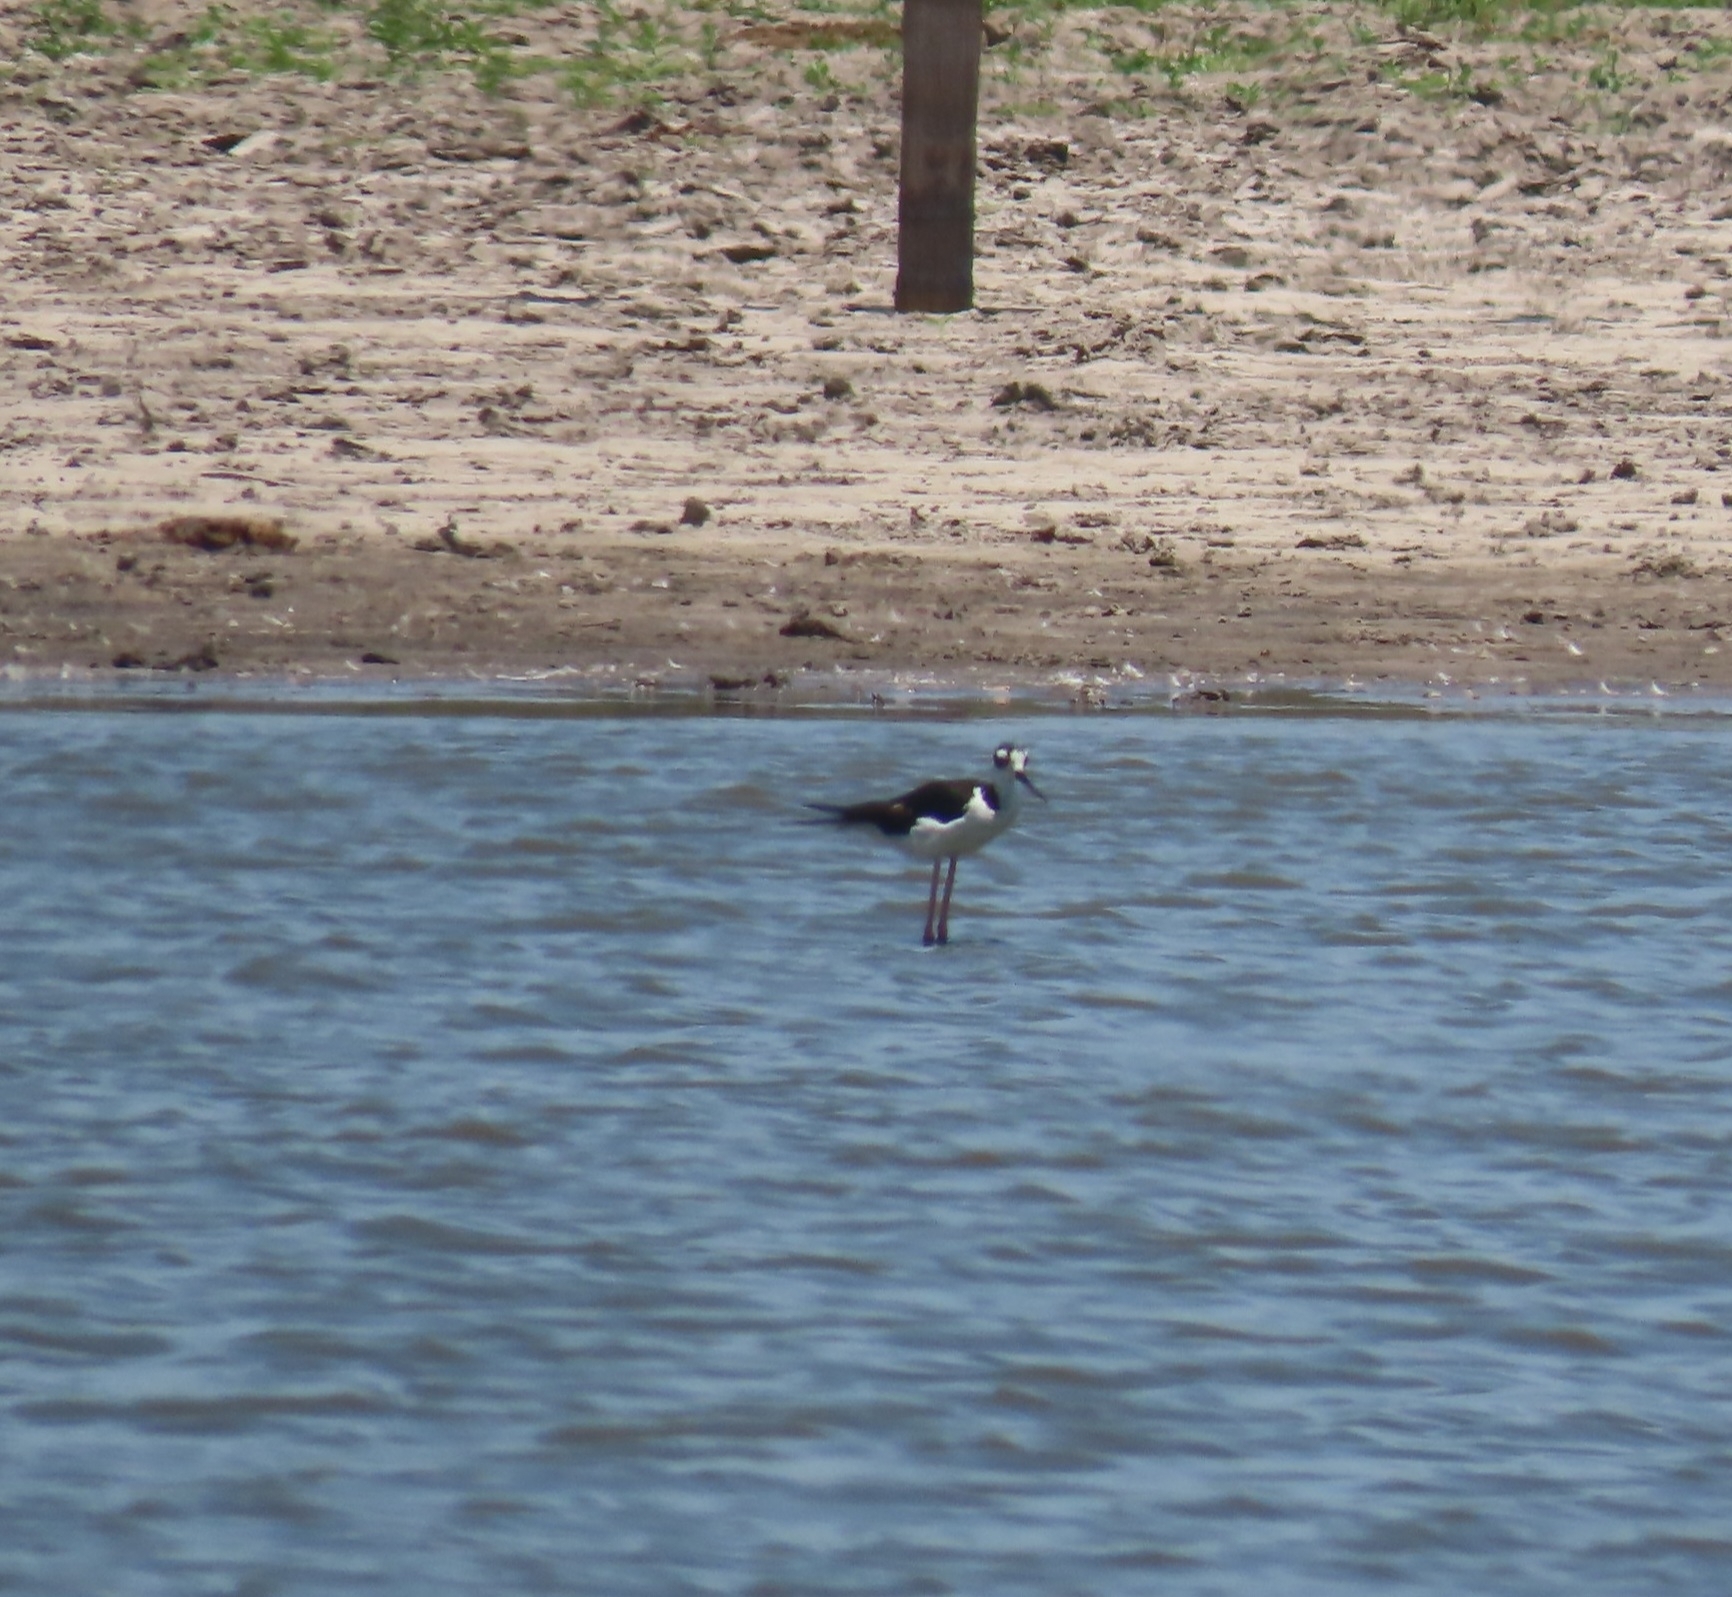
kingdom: Animalia
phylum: Chordata
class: Aves
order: Charadriiformes
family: Recurvirostridae
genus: Himantopus
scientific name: Himantopus mexicanus
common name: Black-necked stilt
